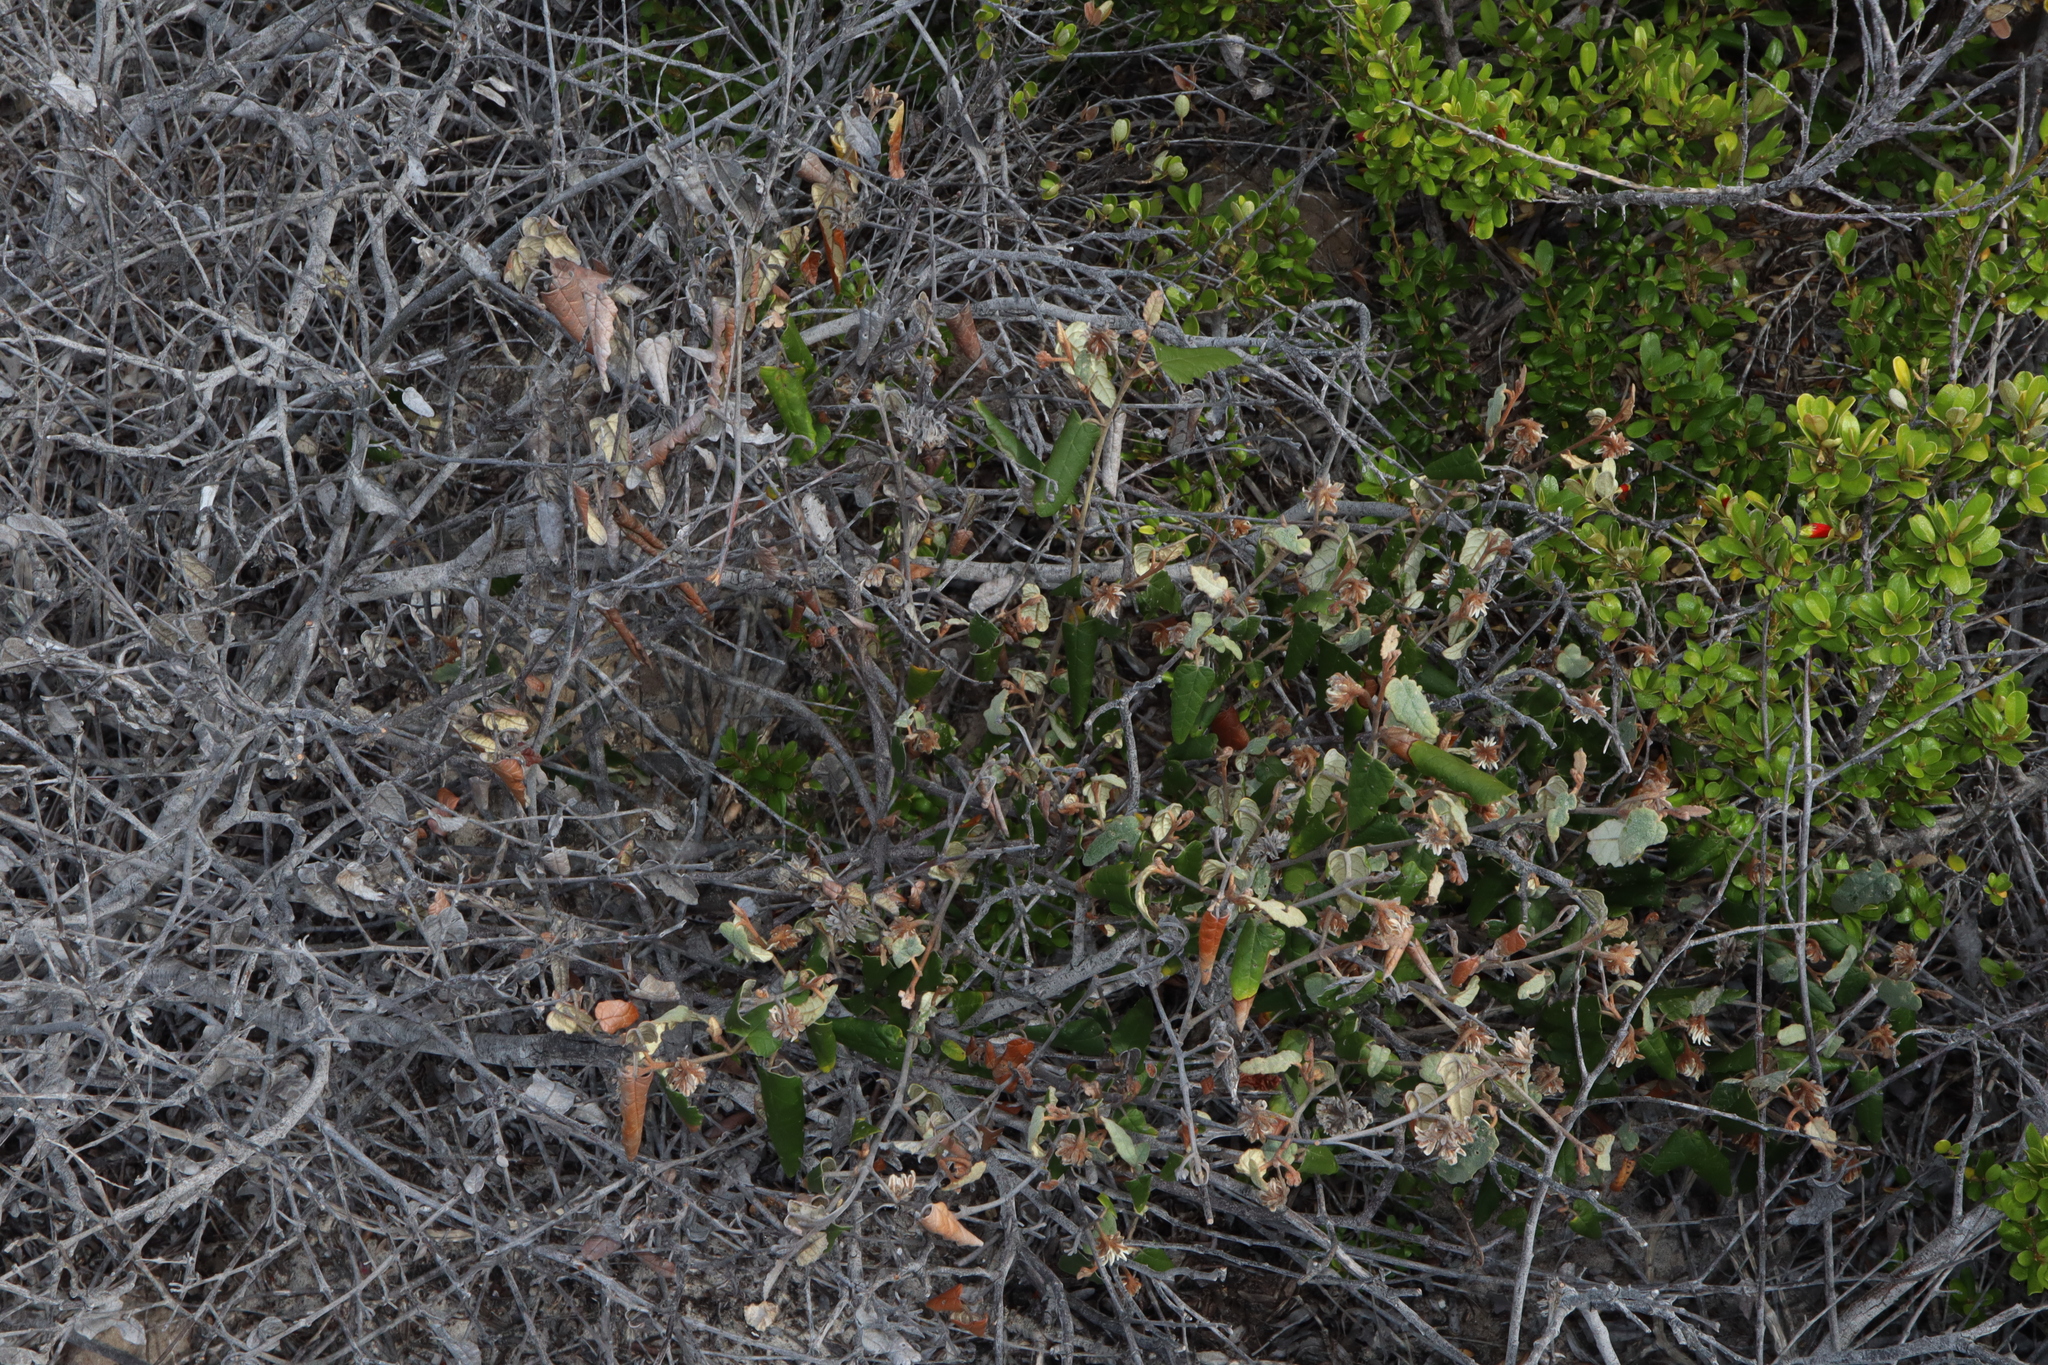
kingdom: Plantae
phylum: Tracheophyta
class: Magnoliopsida
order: Malvales
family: Malvaceae
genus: Lasiopetalum
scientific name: Lasiopetalum discolor
